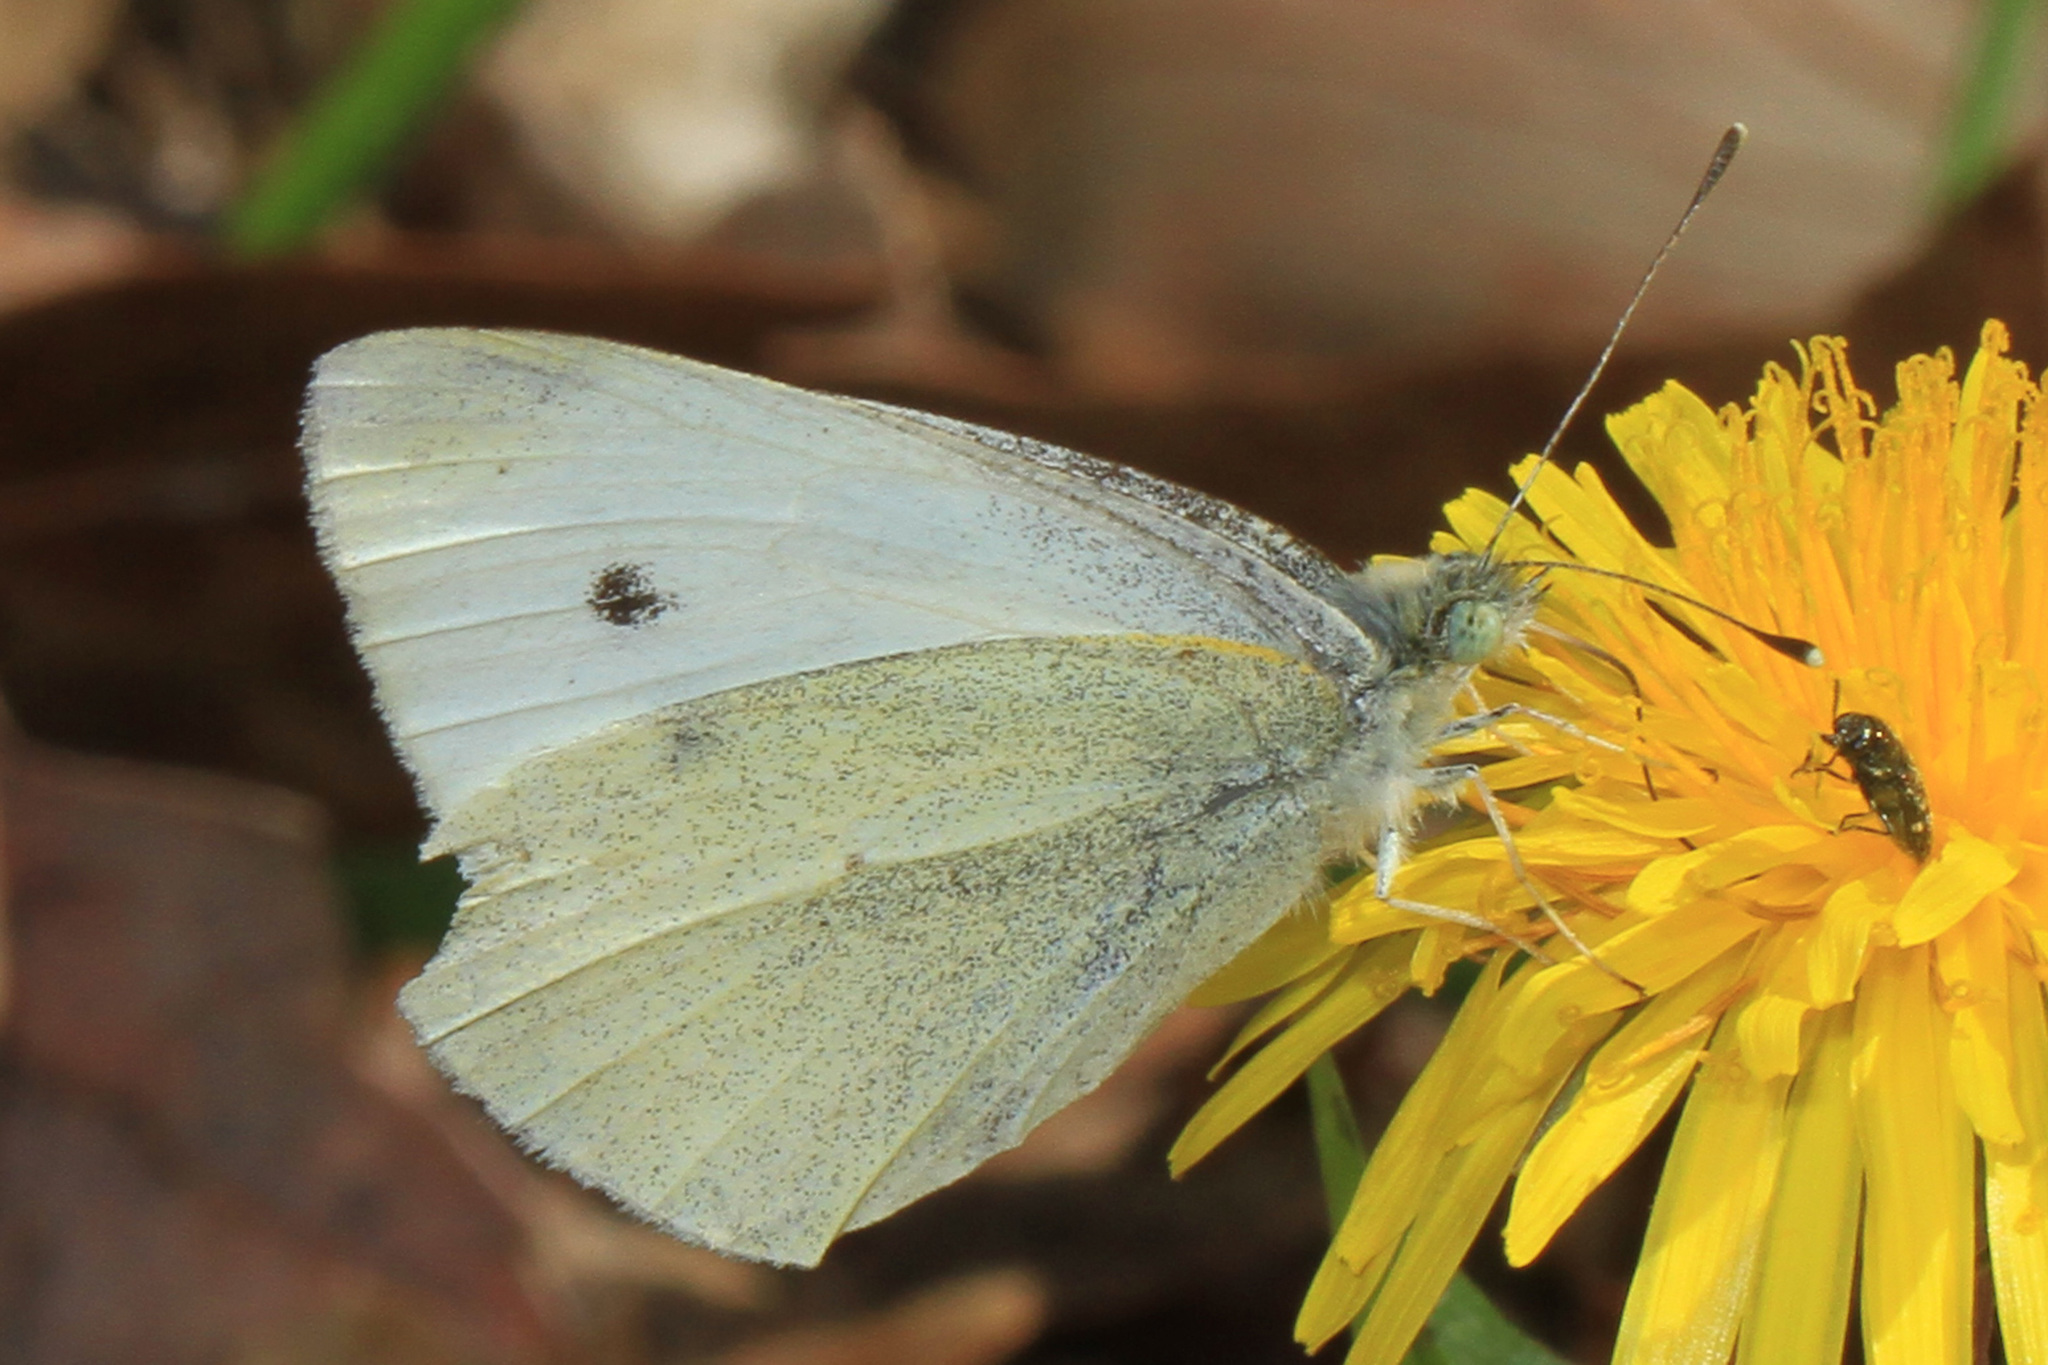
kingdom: Animalia
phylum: Arthropoda
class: Insecta
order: Lepidoptera
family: Pieridae
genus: Pieris
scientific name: Pieris rapae
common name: Small white
